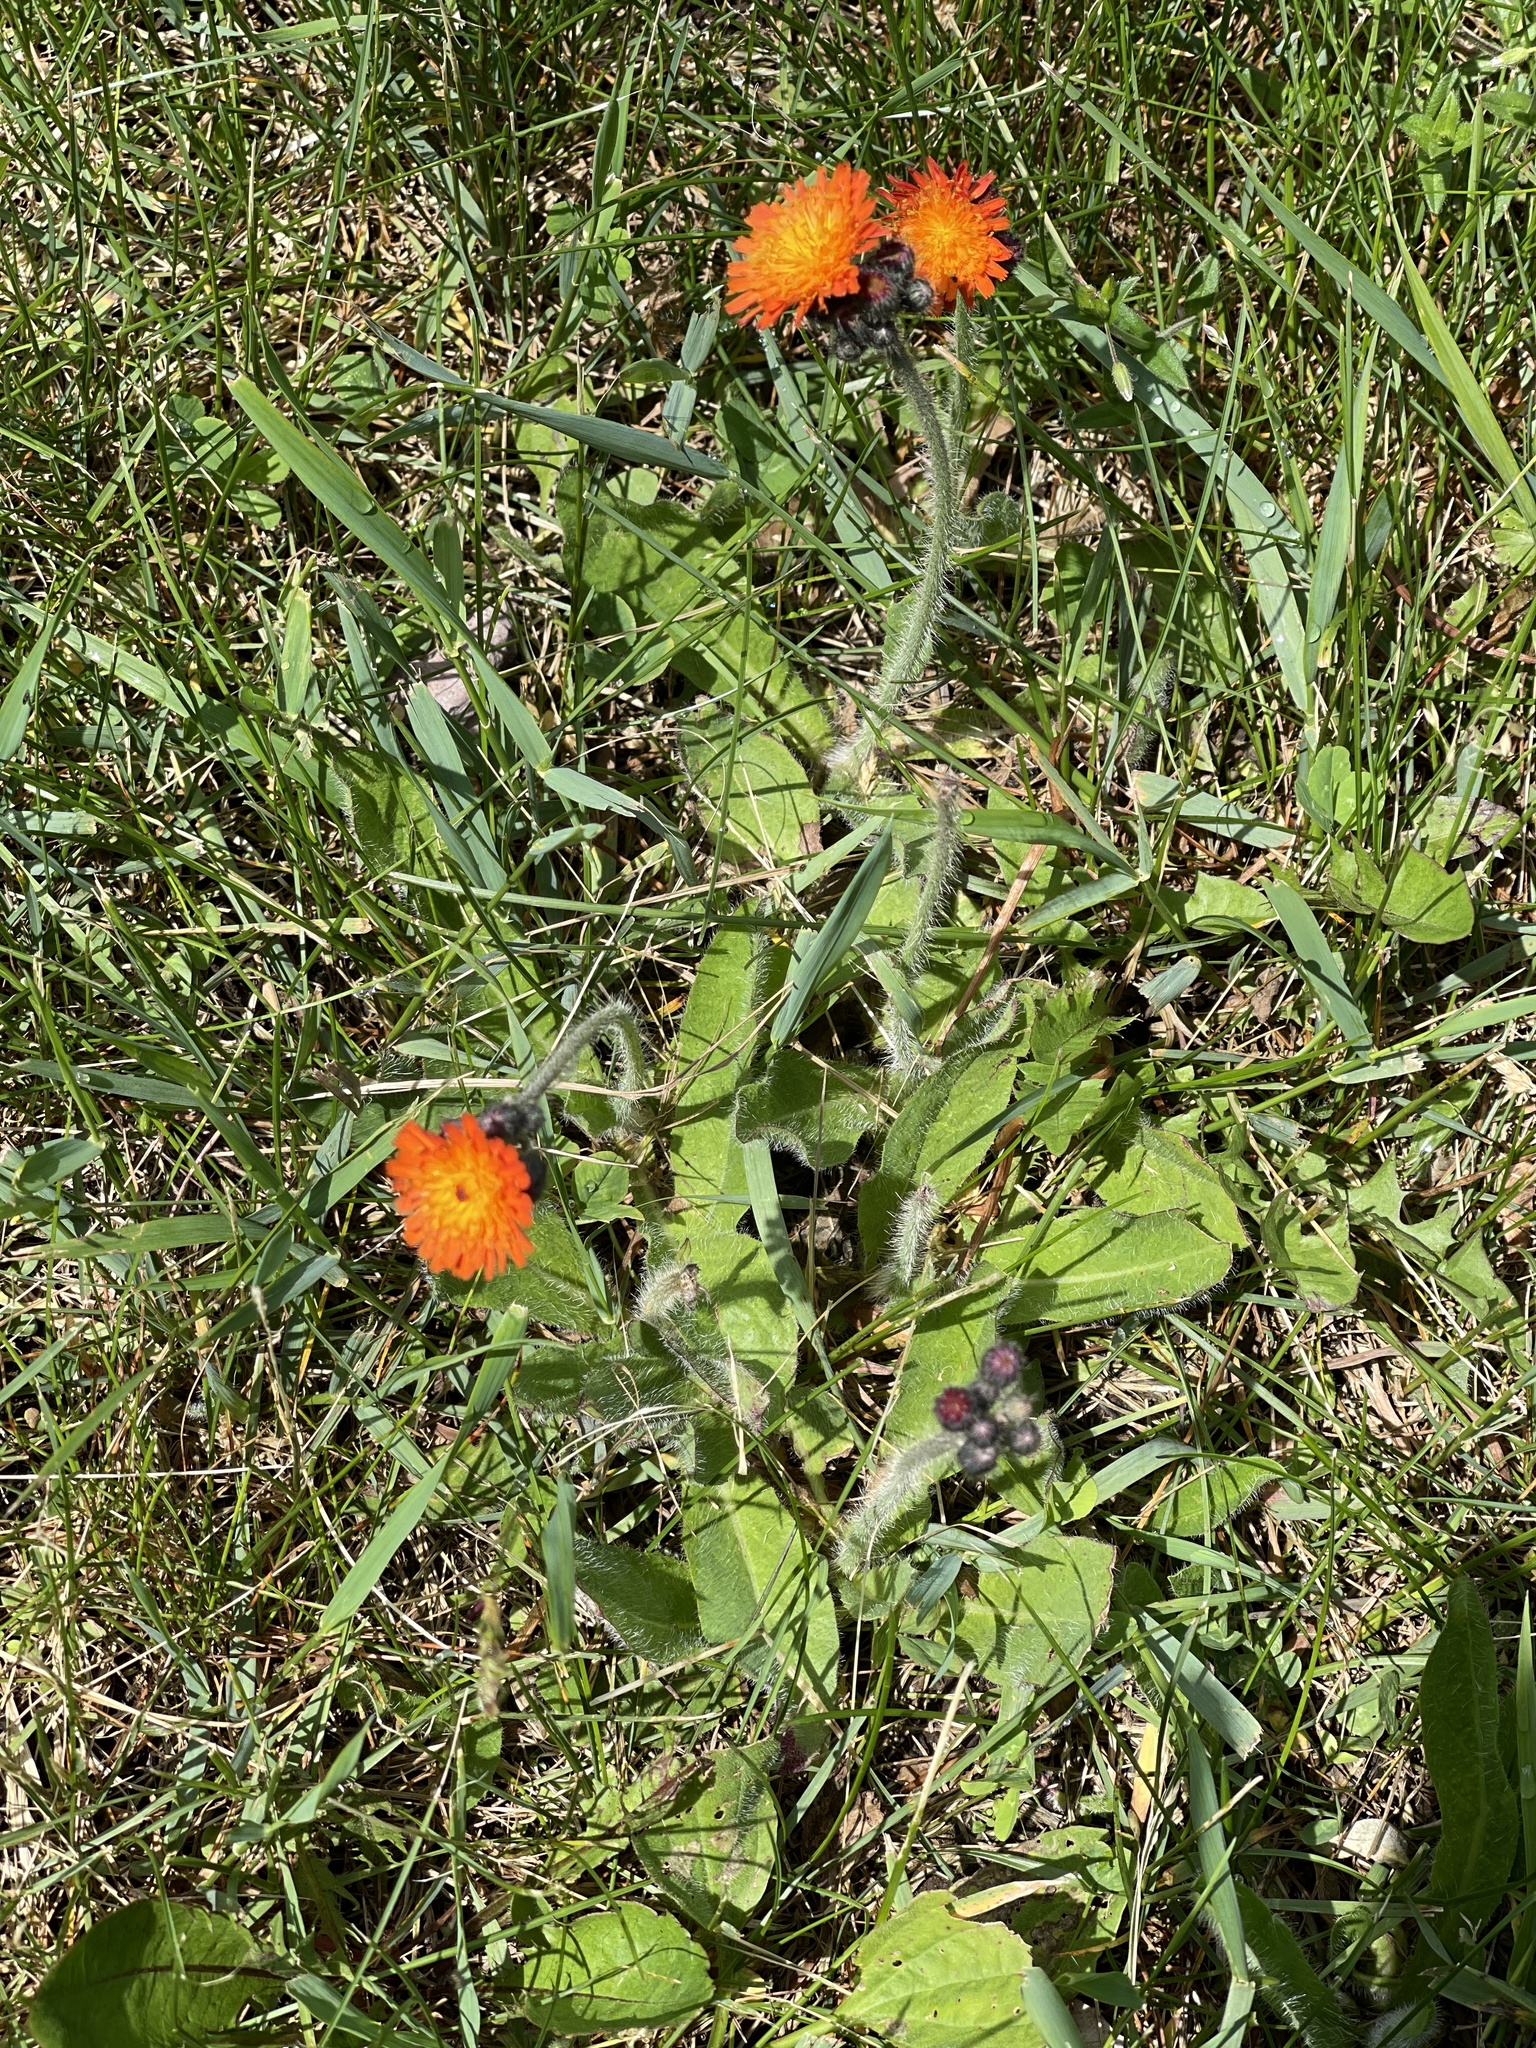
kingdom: Plantae
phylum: Tracheophyta
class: Magnoliopsida
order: Asterales
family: Asteraceae
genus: Pilosella
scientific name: Pilosella aurantiaca
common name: Fox-and-cubs
